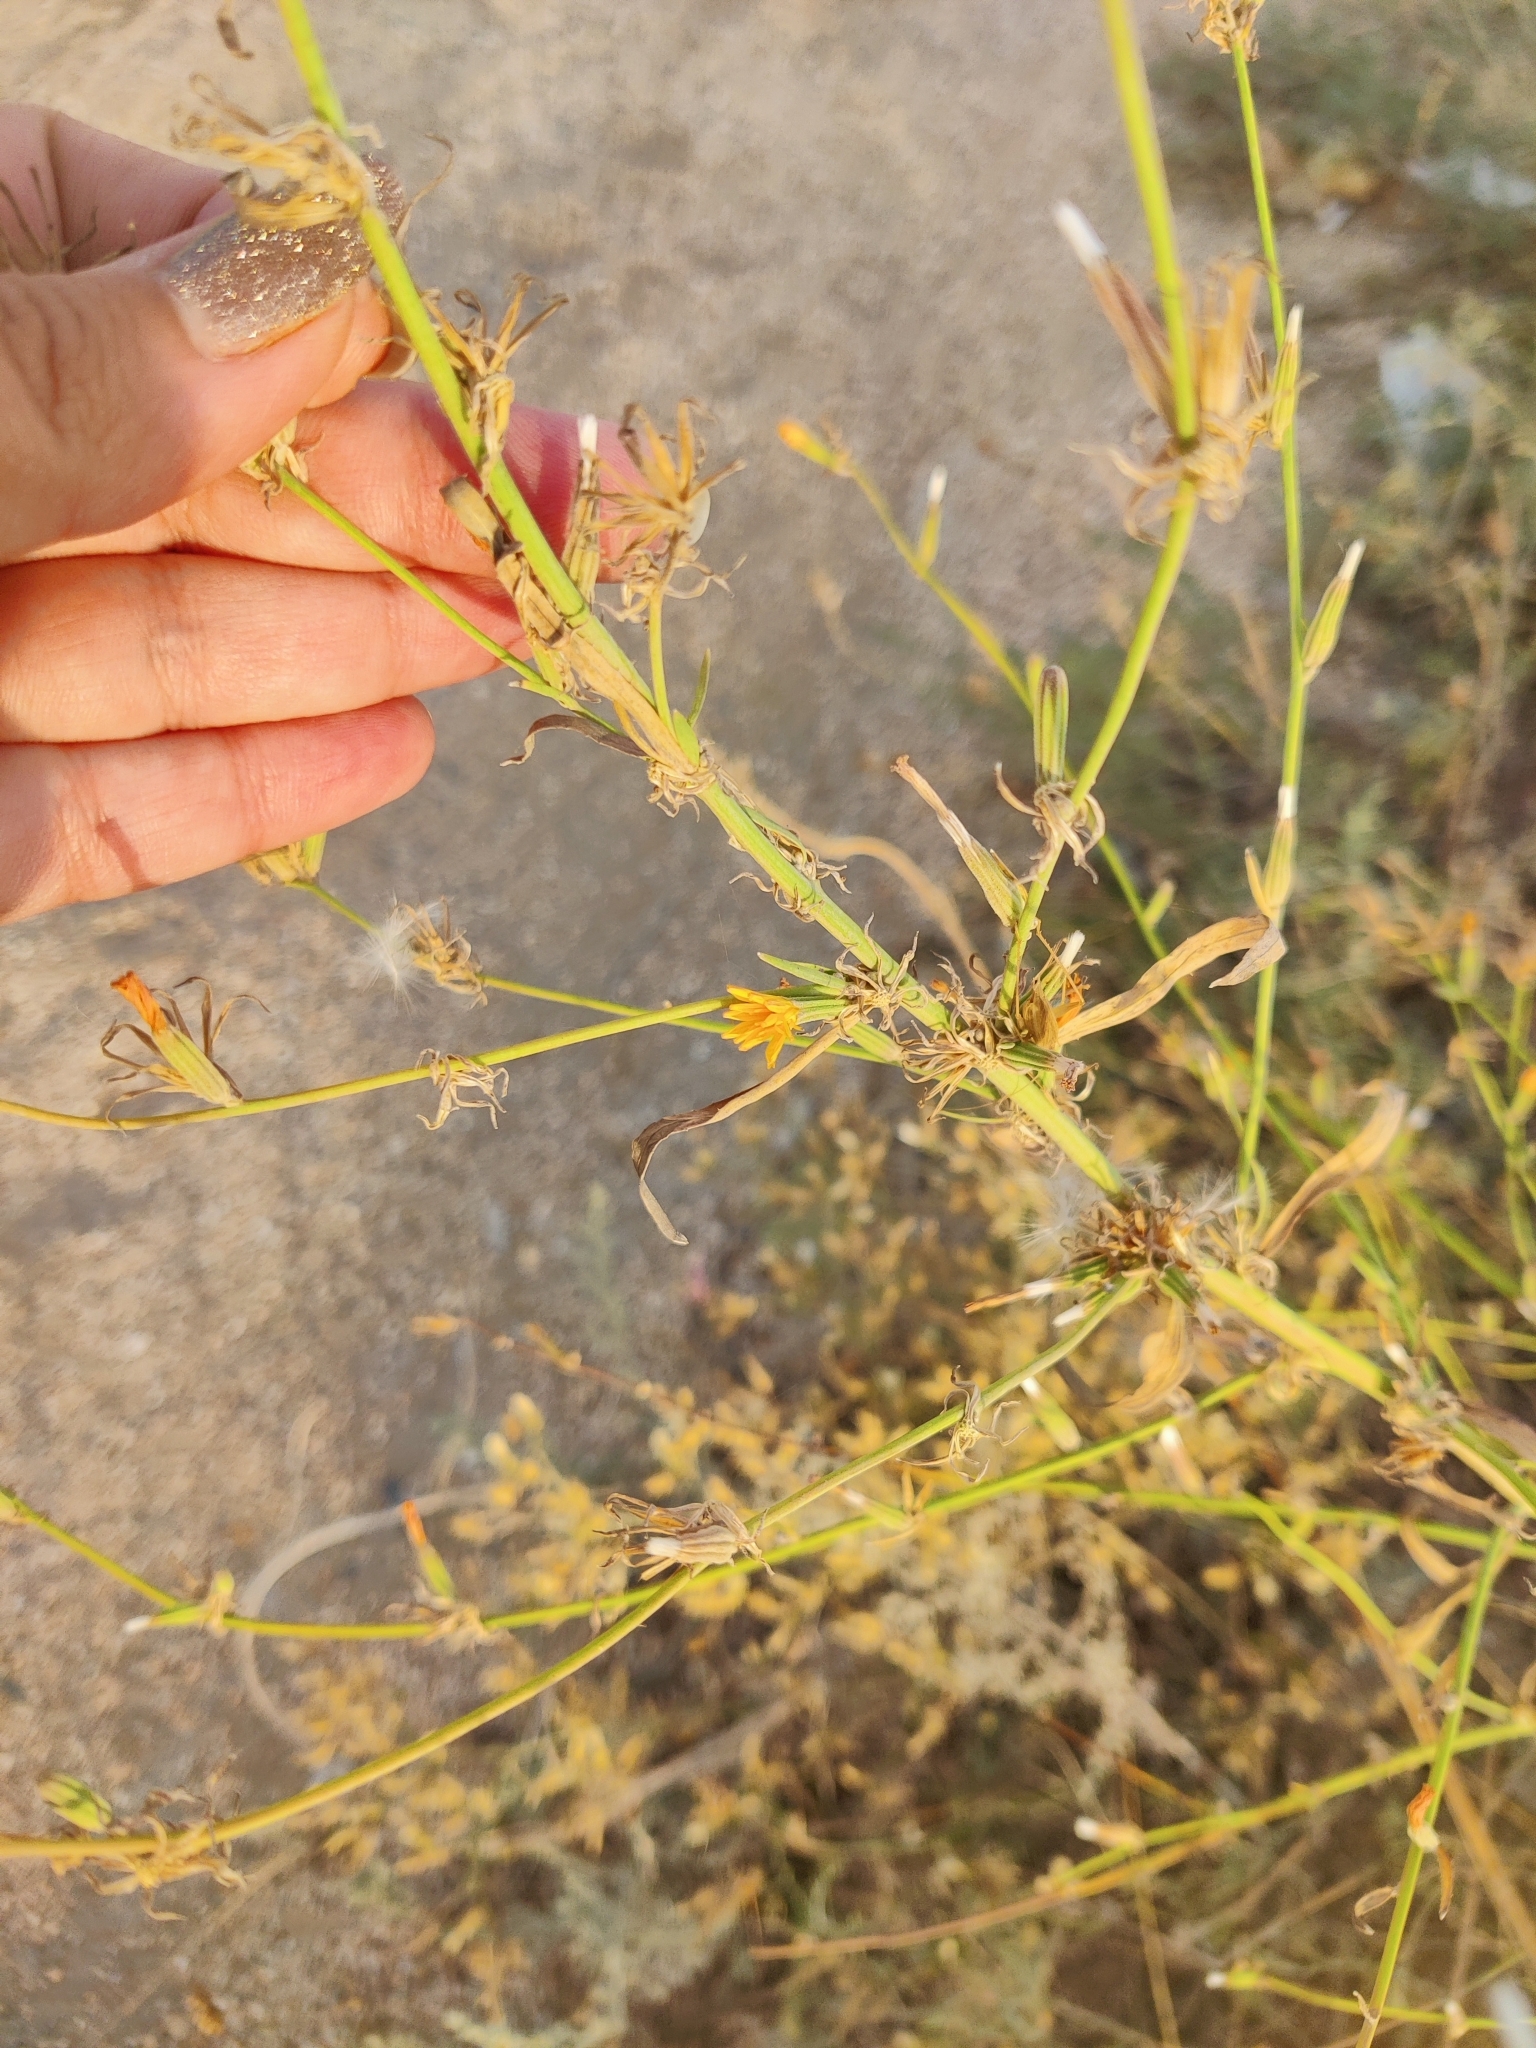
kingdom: Plantae
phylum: Tracheophyta
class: Magnoliopsida
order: Asterales
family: Asteraceae
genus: Chondrilla
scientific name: Chondrilla juncea
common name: Skeleton weed
